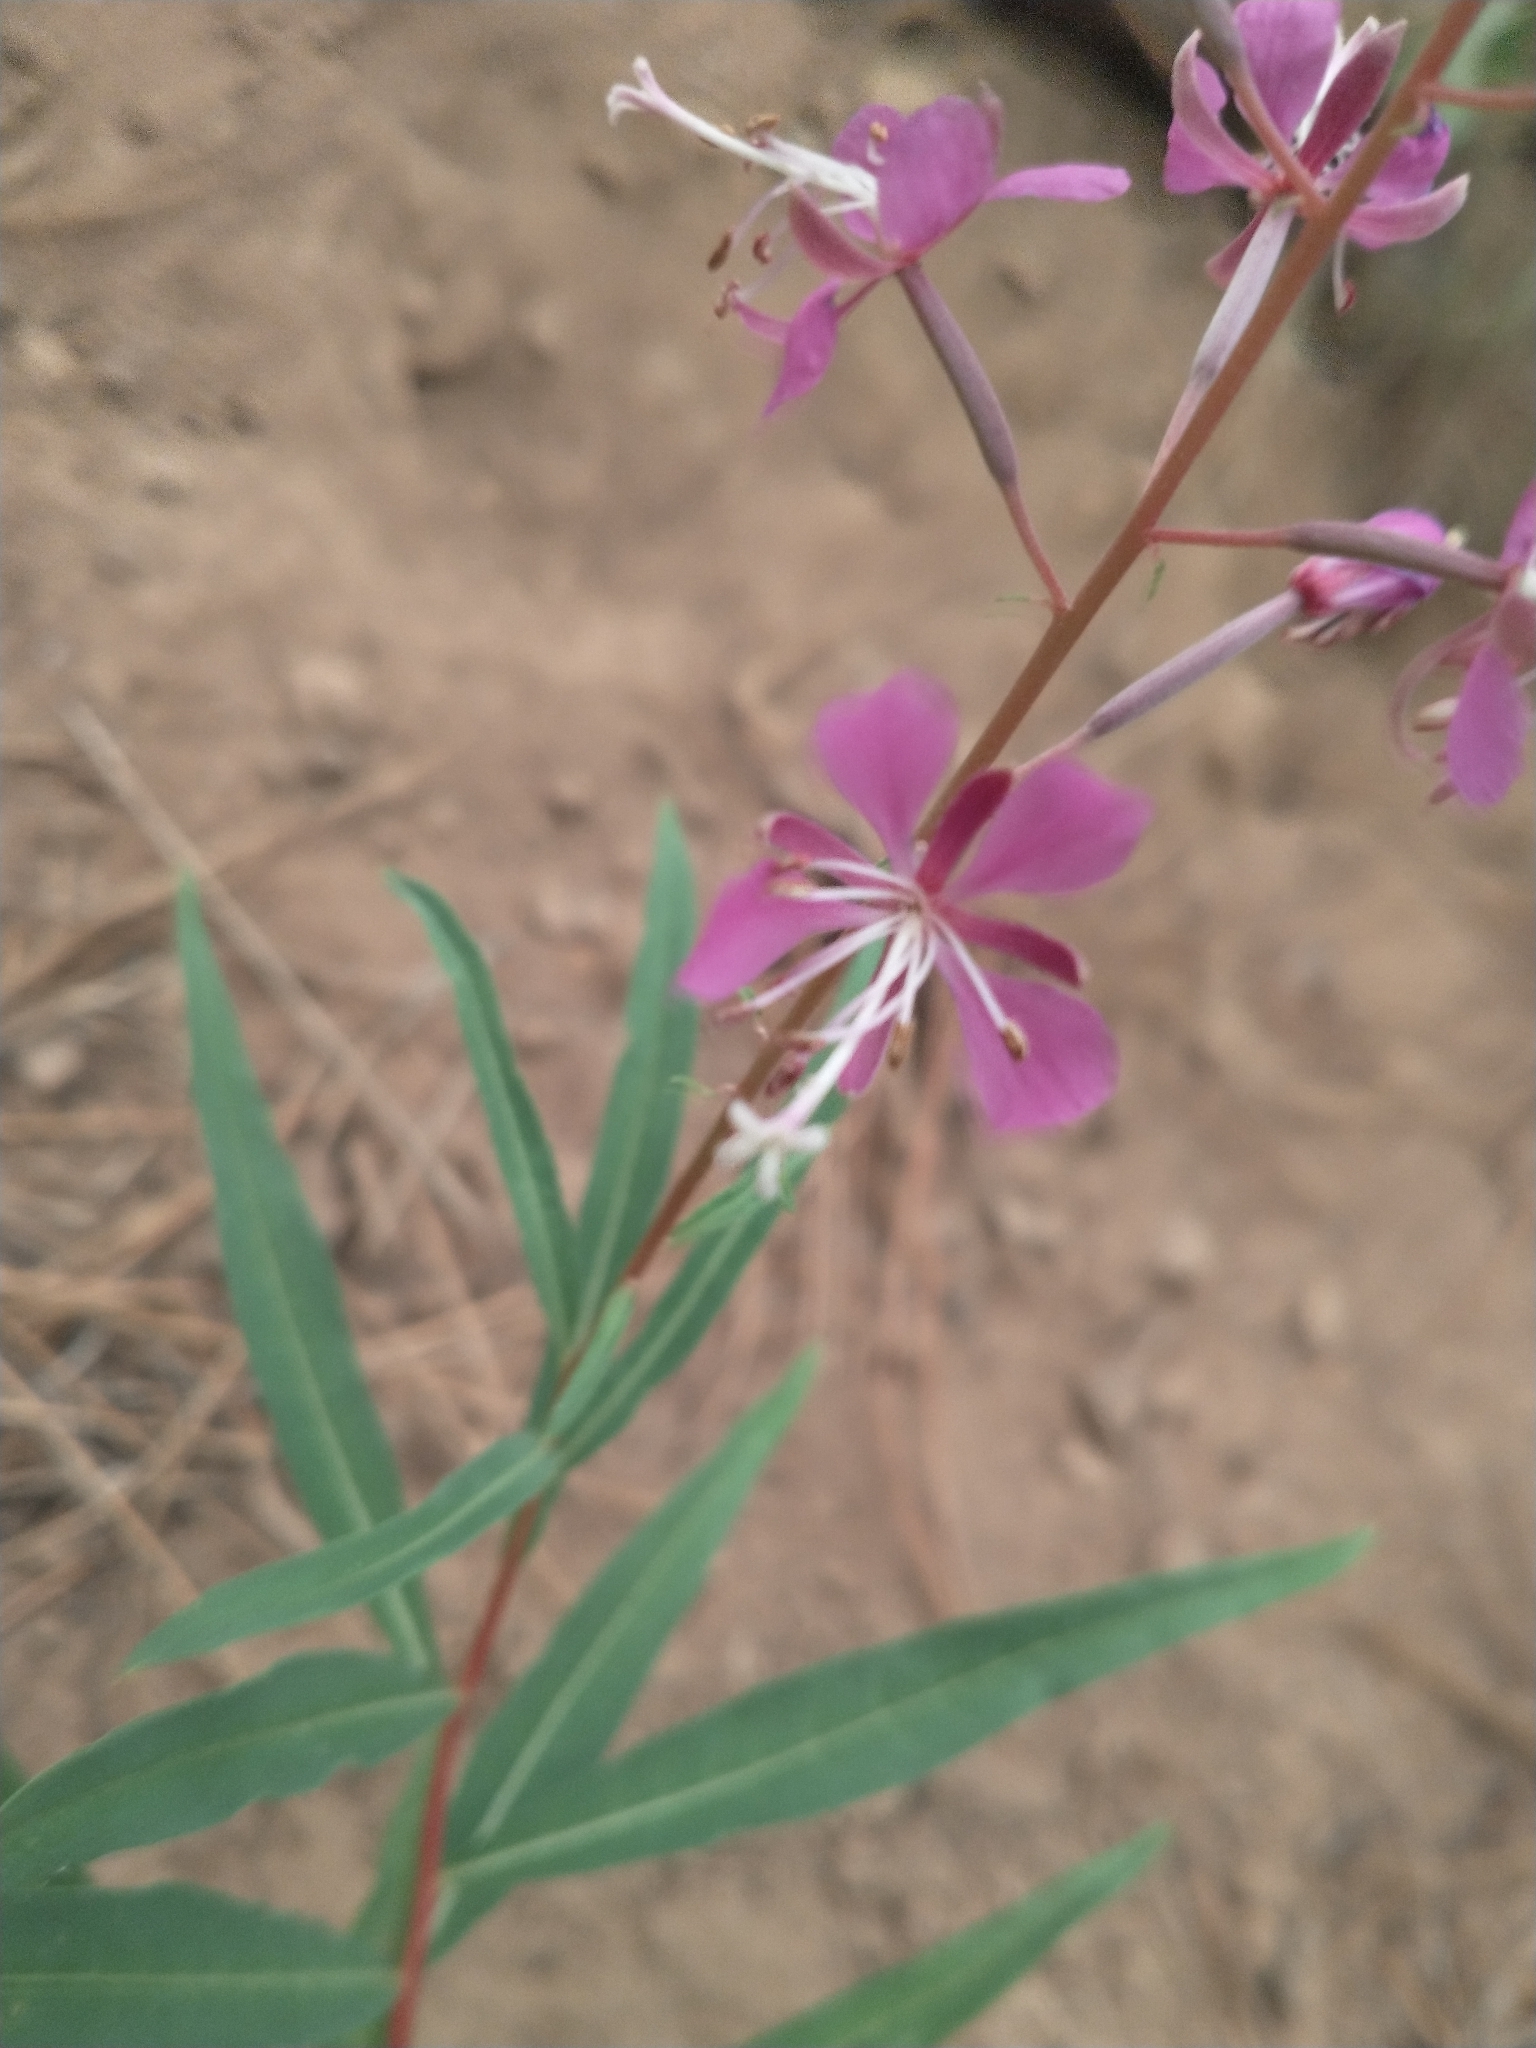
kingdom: Plantae
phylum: Tracheophyta
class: Magnoliopsida
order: Myrtales
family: Onagraceae
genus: Chamaenerion
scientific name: Chamaenerion angustifolium
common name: Fireweed
